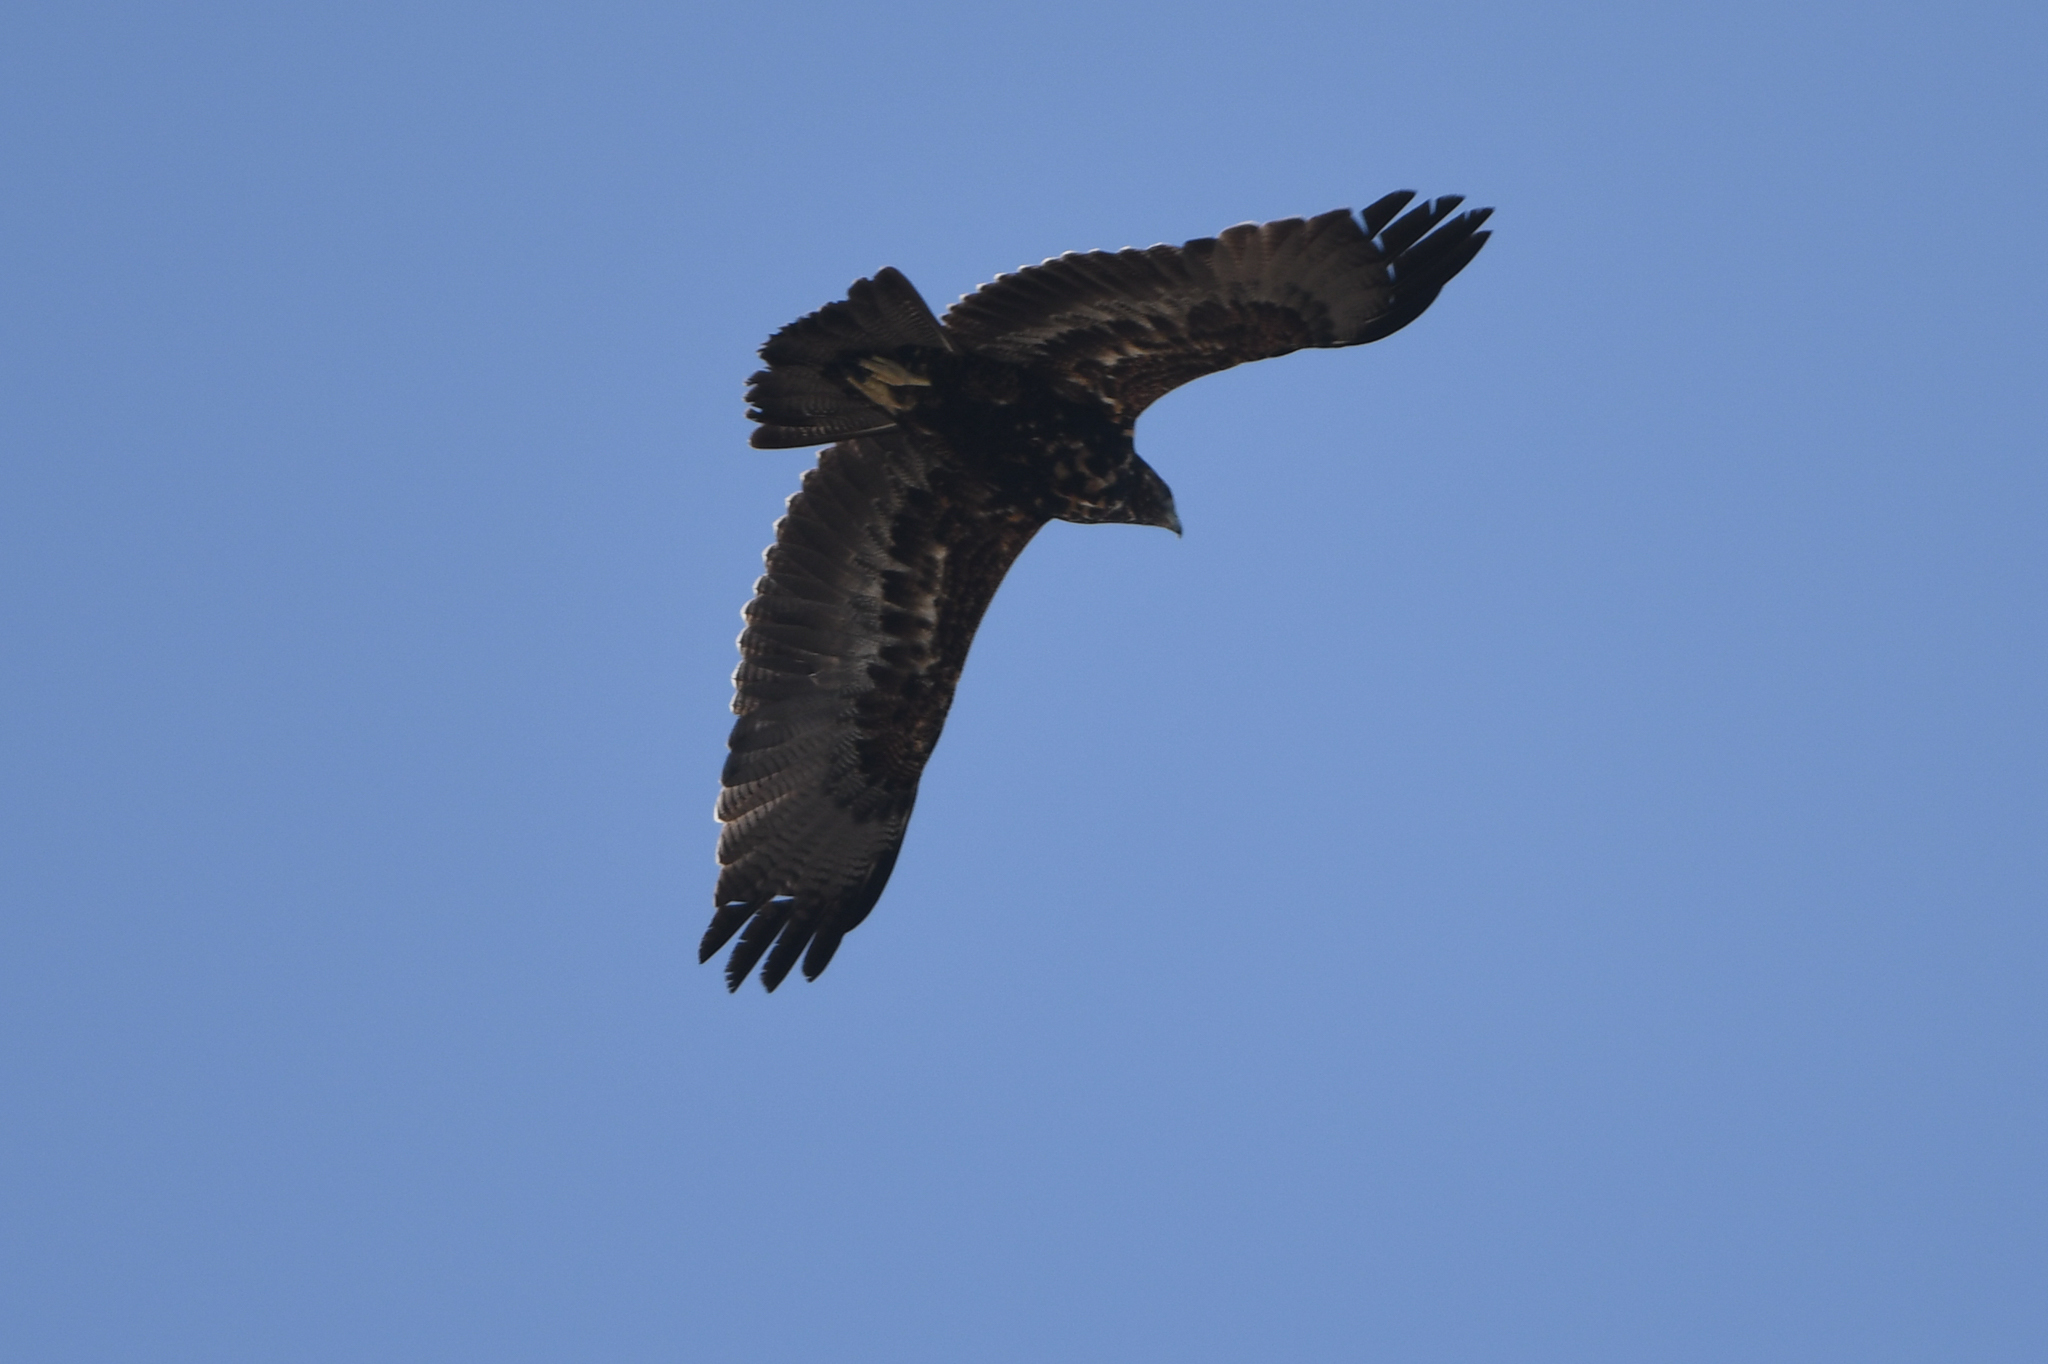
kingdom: Animalia
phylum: Chordata
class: Aves
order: Accipitriformes
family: Accipitridae
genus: Geranoaetus
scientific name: Geranoaetus melanoleucus
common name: Black-chested buzzard-eagle
